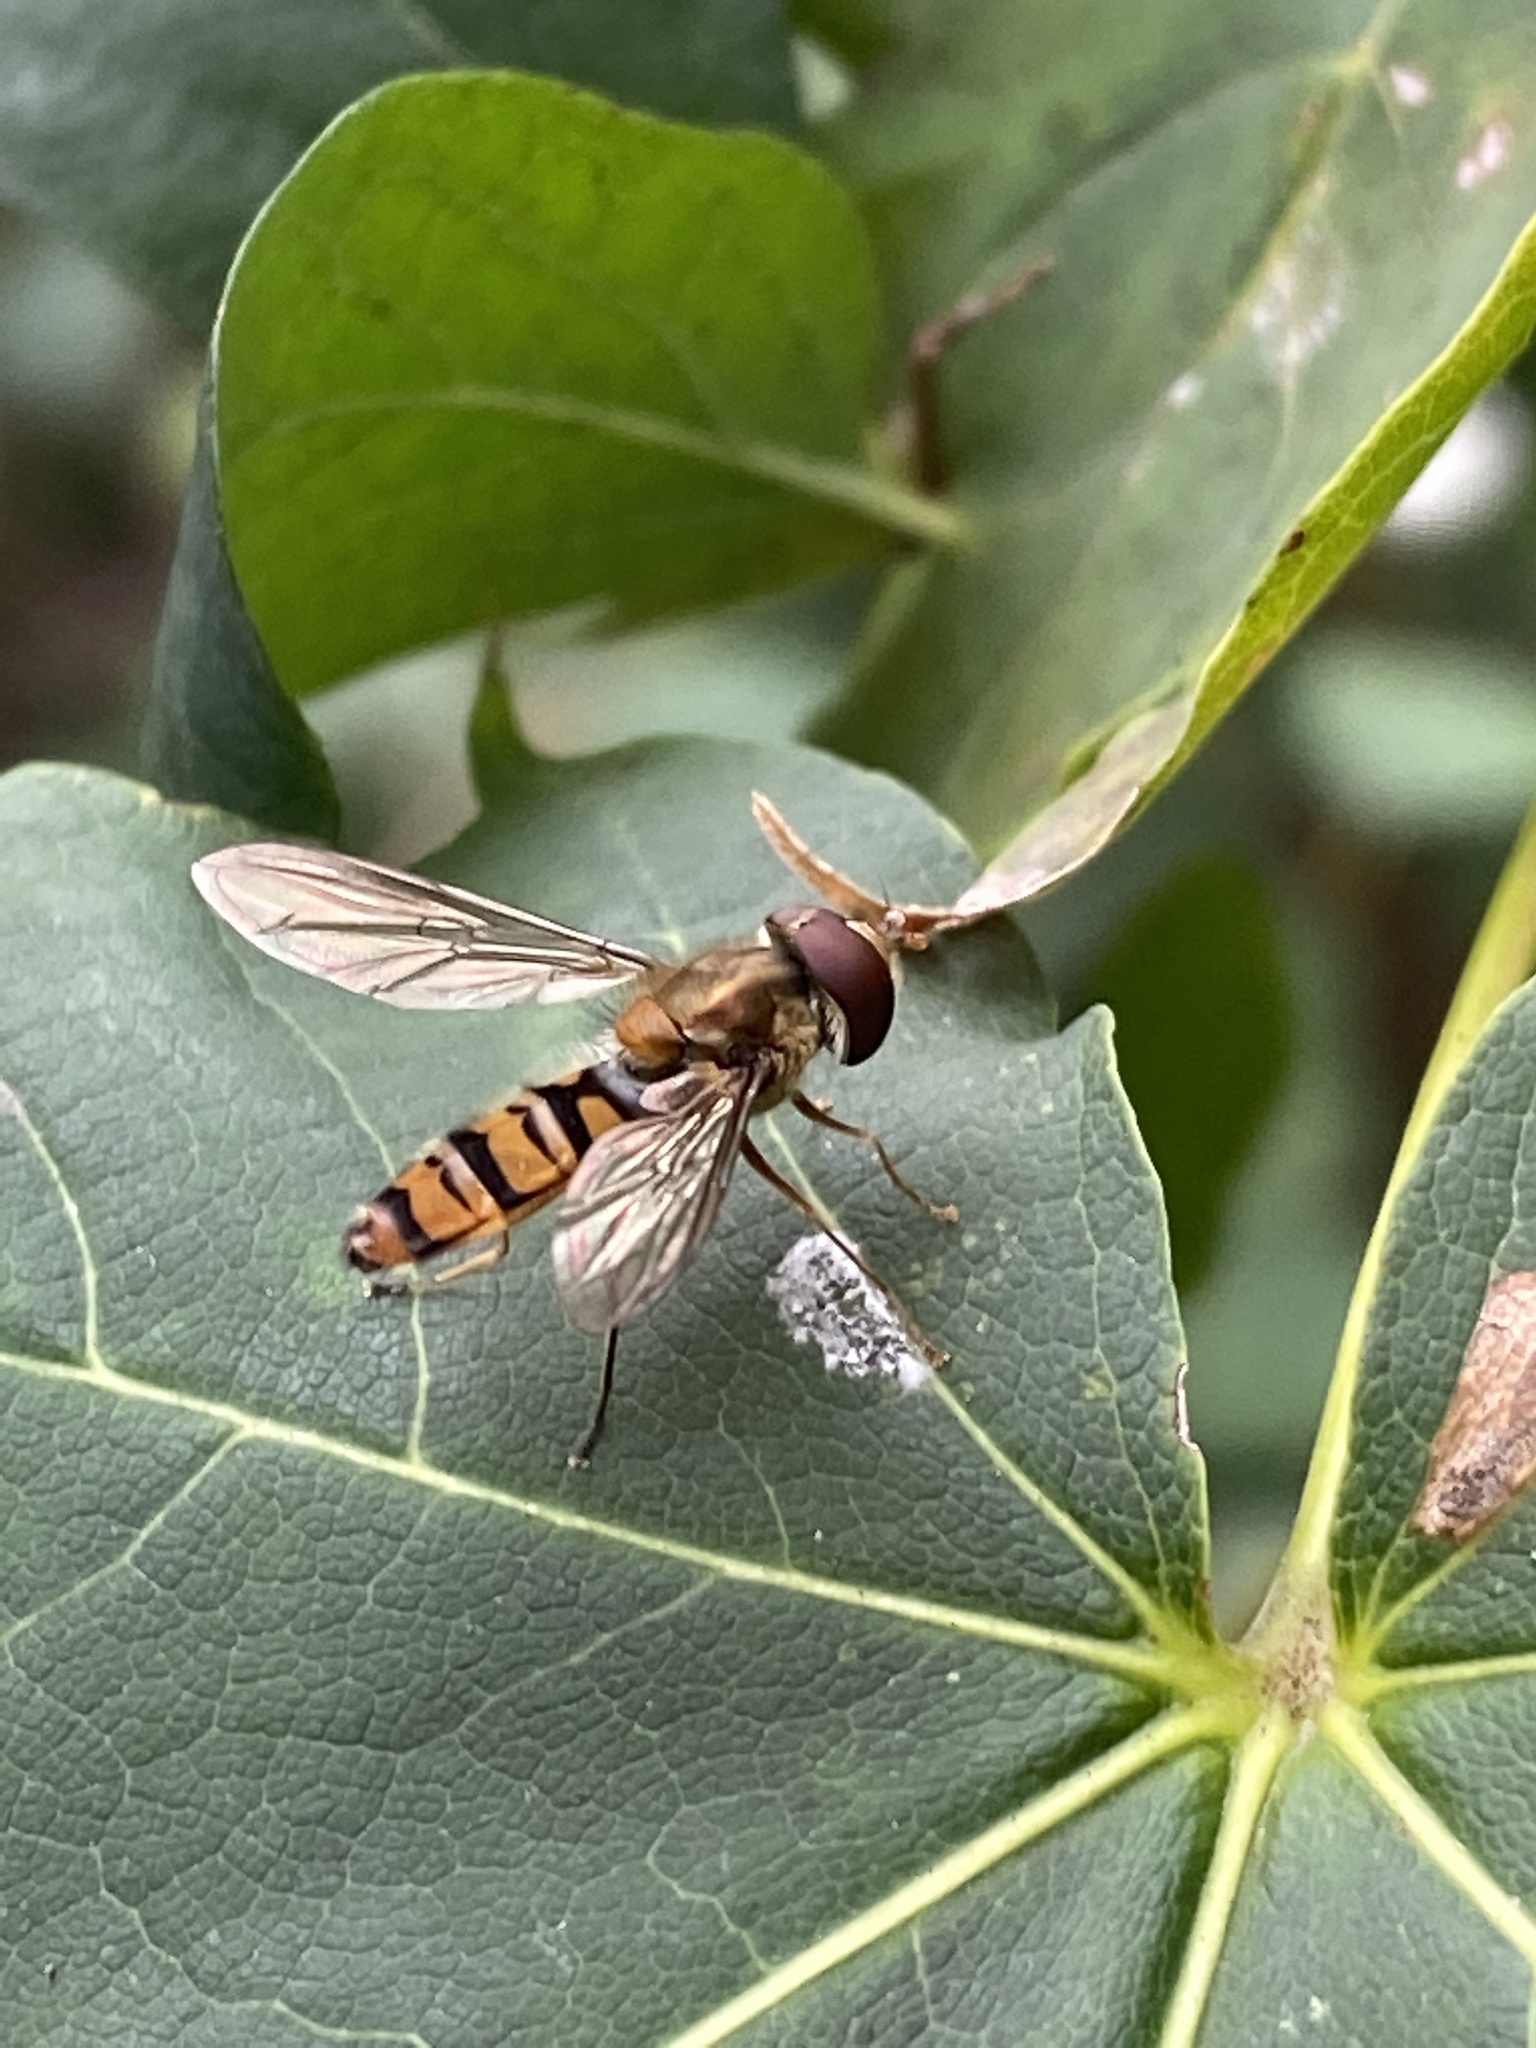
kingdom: Animalia
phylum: Arthropoda
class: Insecta
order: Diptera
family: Syrphidae
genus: Episyrphus
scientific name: Episyrphus balteatus
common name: Marmalade hoverfly
